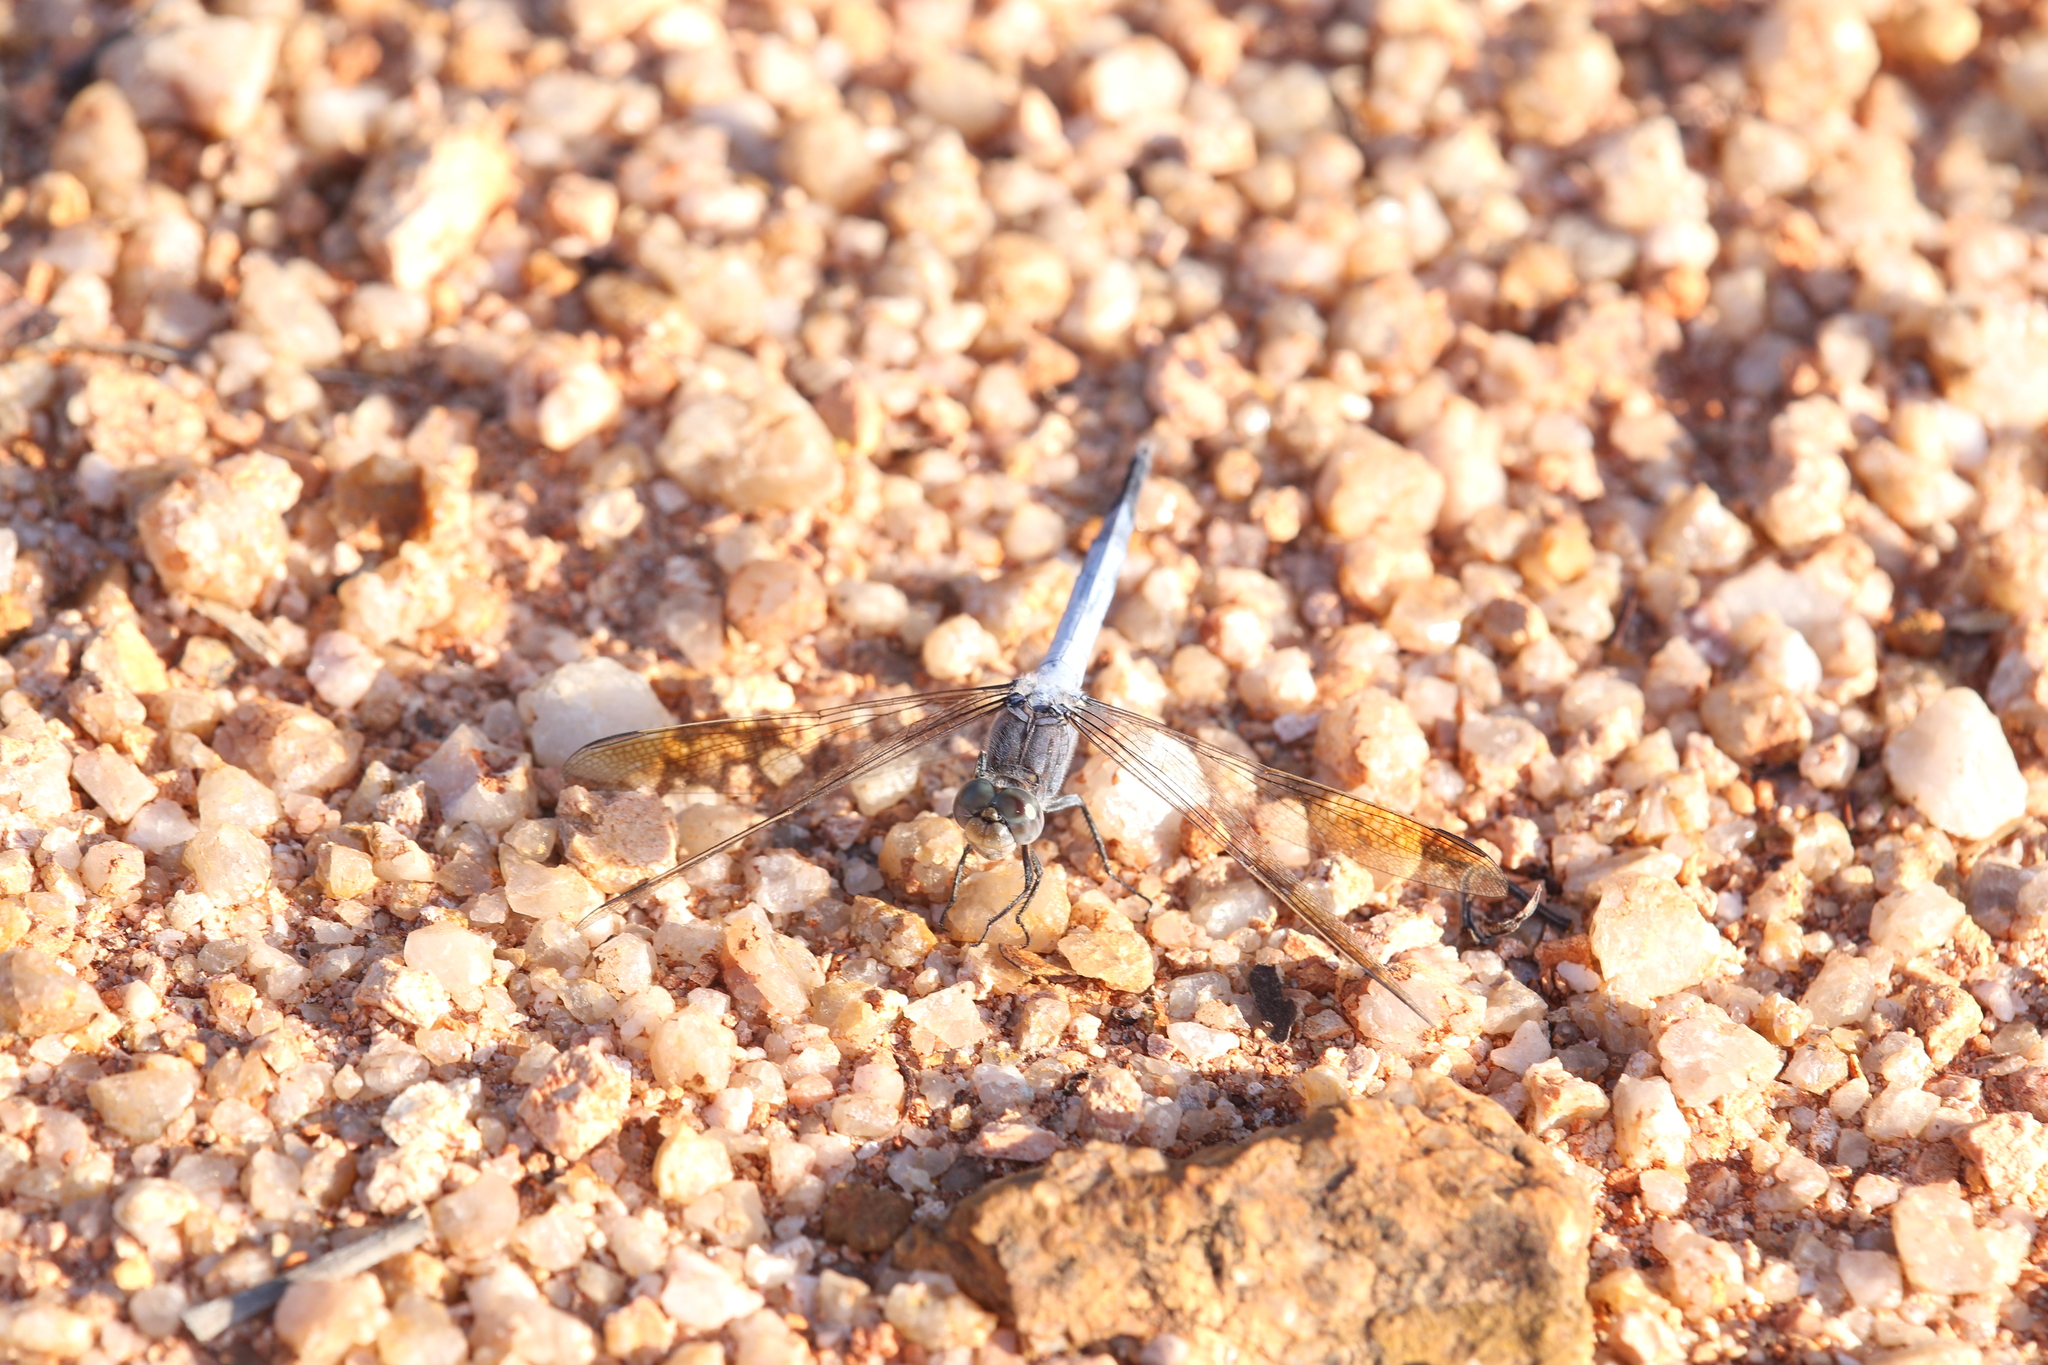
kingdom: Animalia
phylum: Arthropoda
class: Insecta
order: Odonata
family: Libellulidae
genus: Orthetrum
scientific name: Orthetrum caledonicum
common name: Blue skimmer
